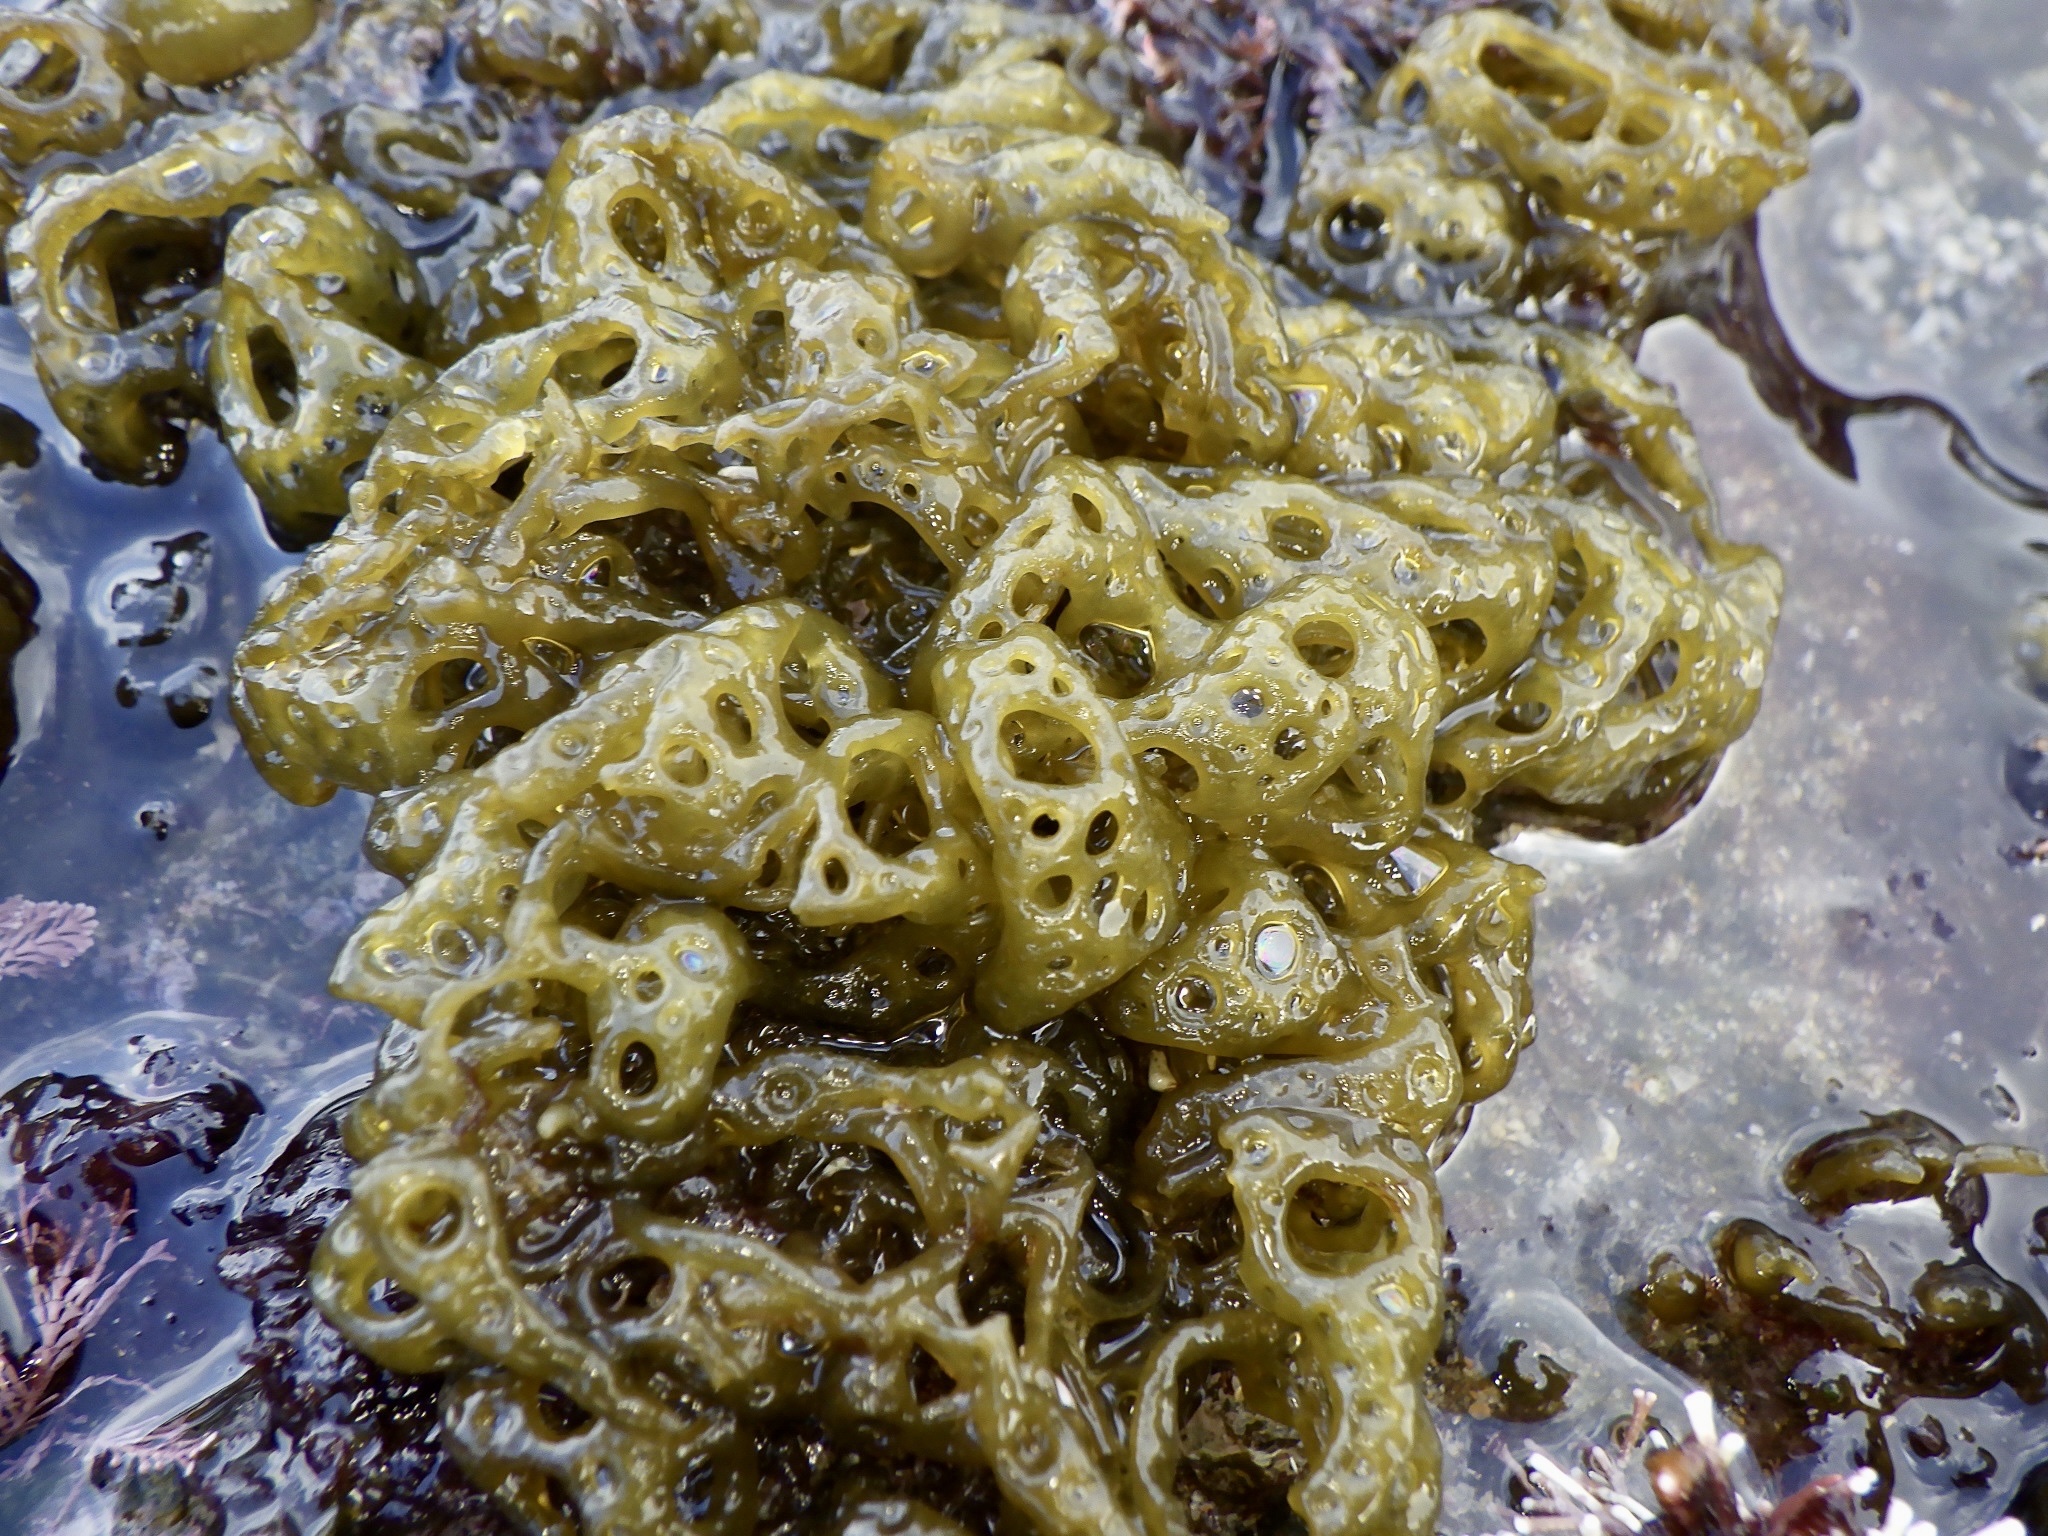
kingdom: Chromista
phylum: Ochrophyta
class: Phaeophyceae
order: Scytosiphonales
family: Scytosiphonaceae
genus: Hydroclathrus
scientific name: Hydroclathrus clathratus
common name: Swiss cheese algae
